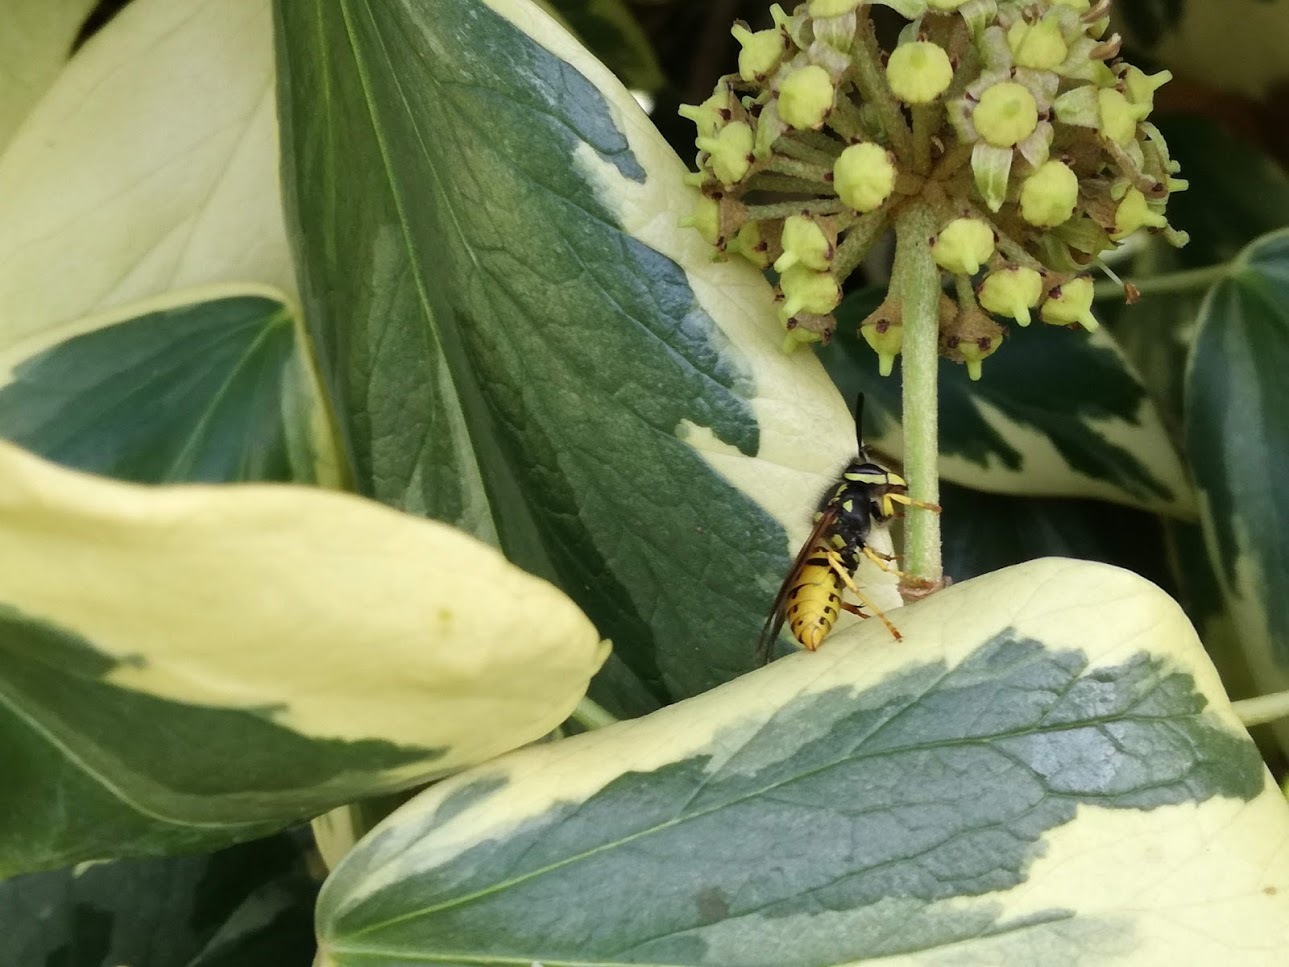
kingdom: Animalia
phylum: Arthropoda
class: Insecta
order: Hymenoptera
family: Vespidae
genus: Vespula
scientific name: Vespula germanica
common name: German wasp
